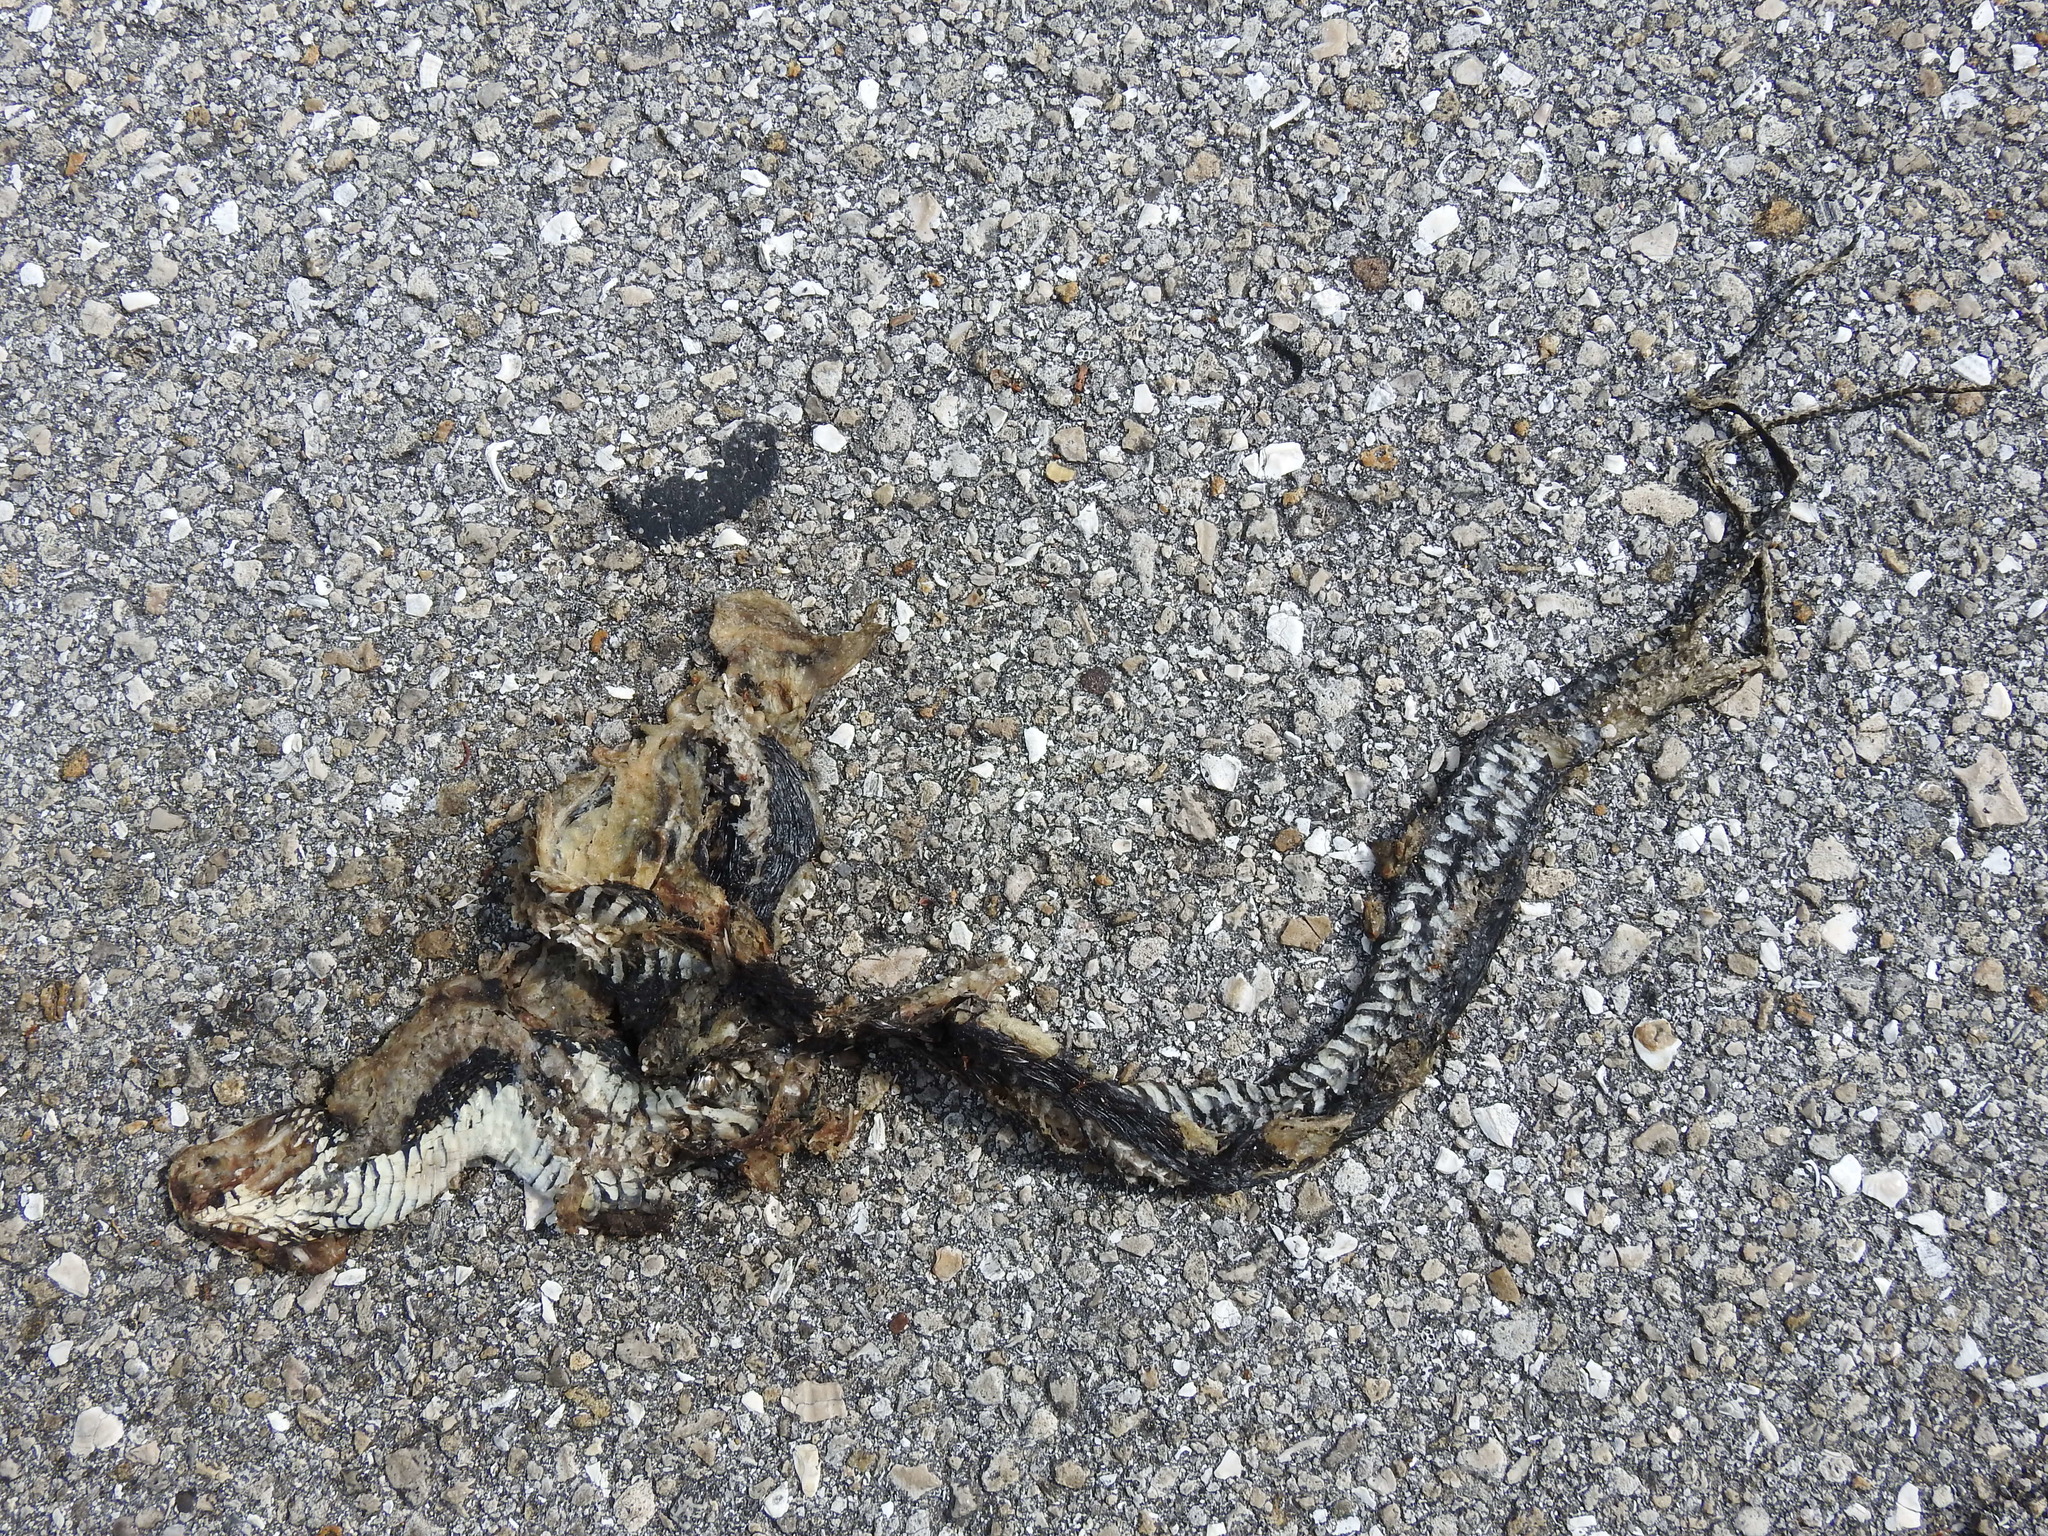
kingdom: Animalia
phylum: Chordata
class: Squamata
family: Colubridae
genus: Nerodia
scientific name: Nerodia fasciata
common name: Southern water snake
